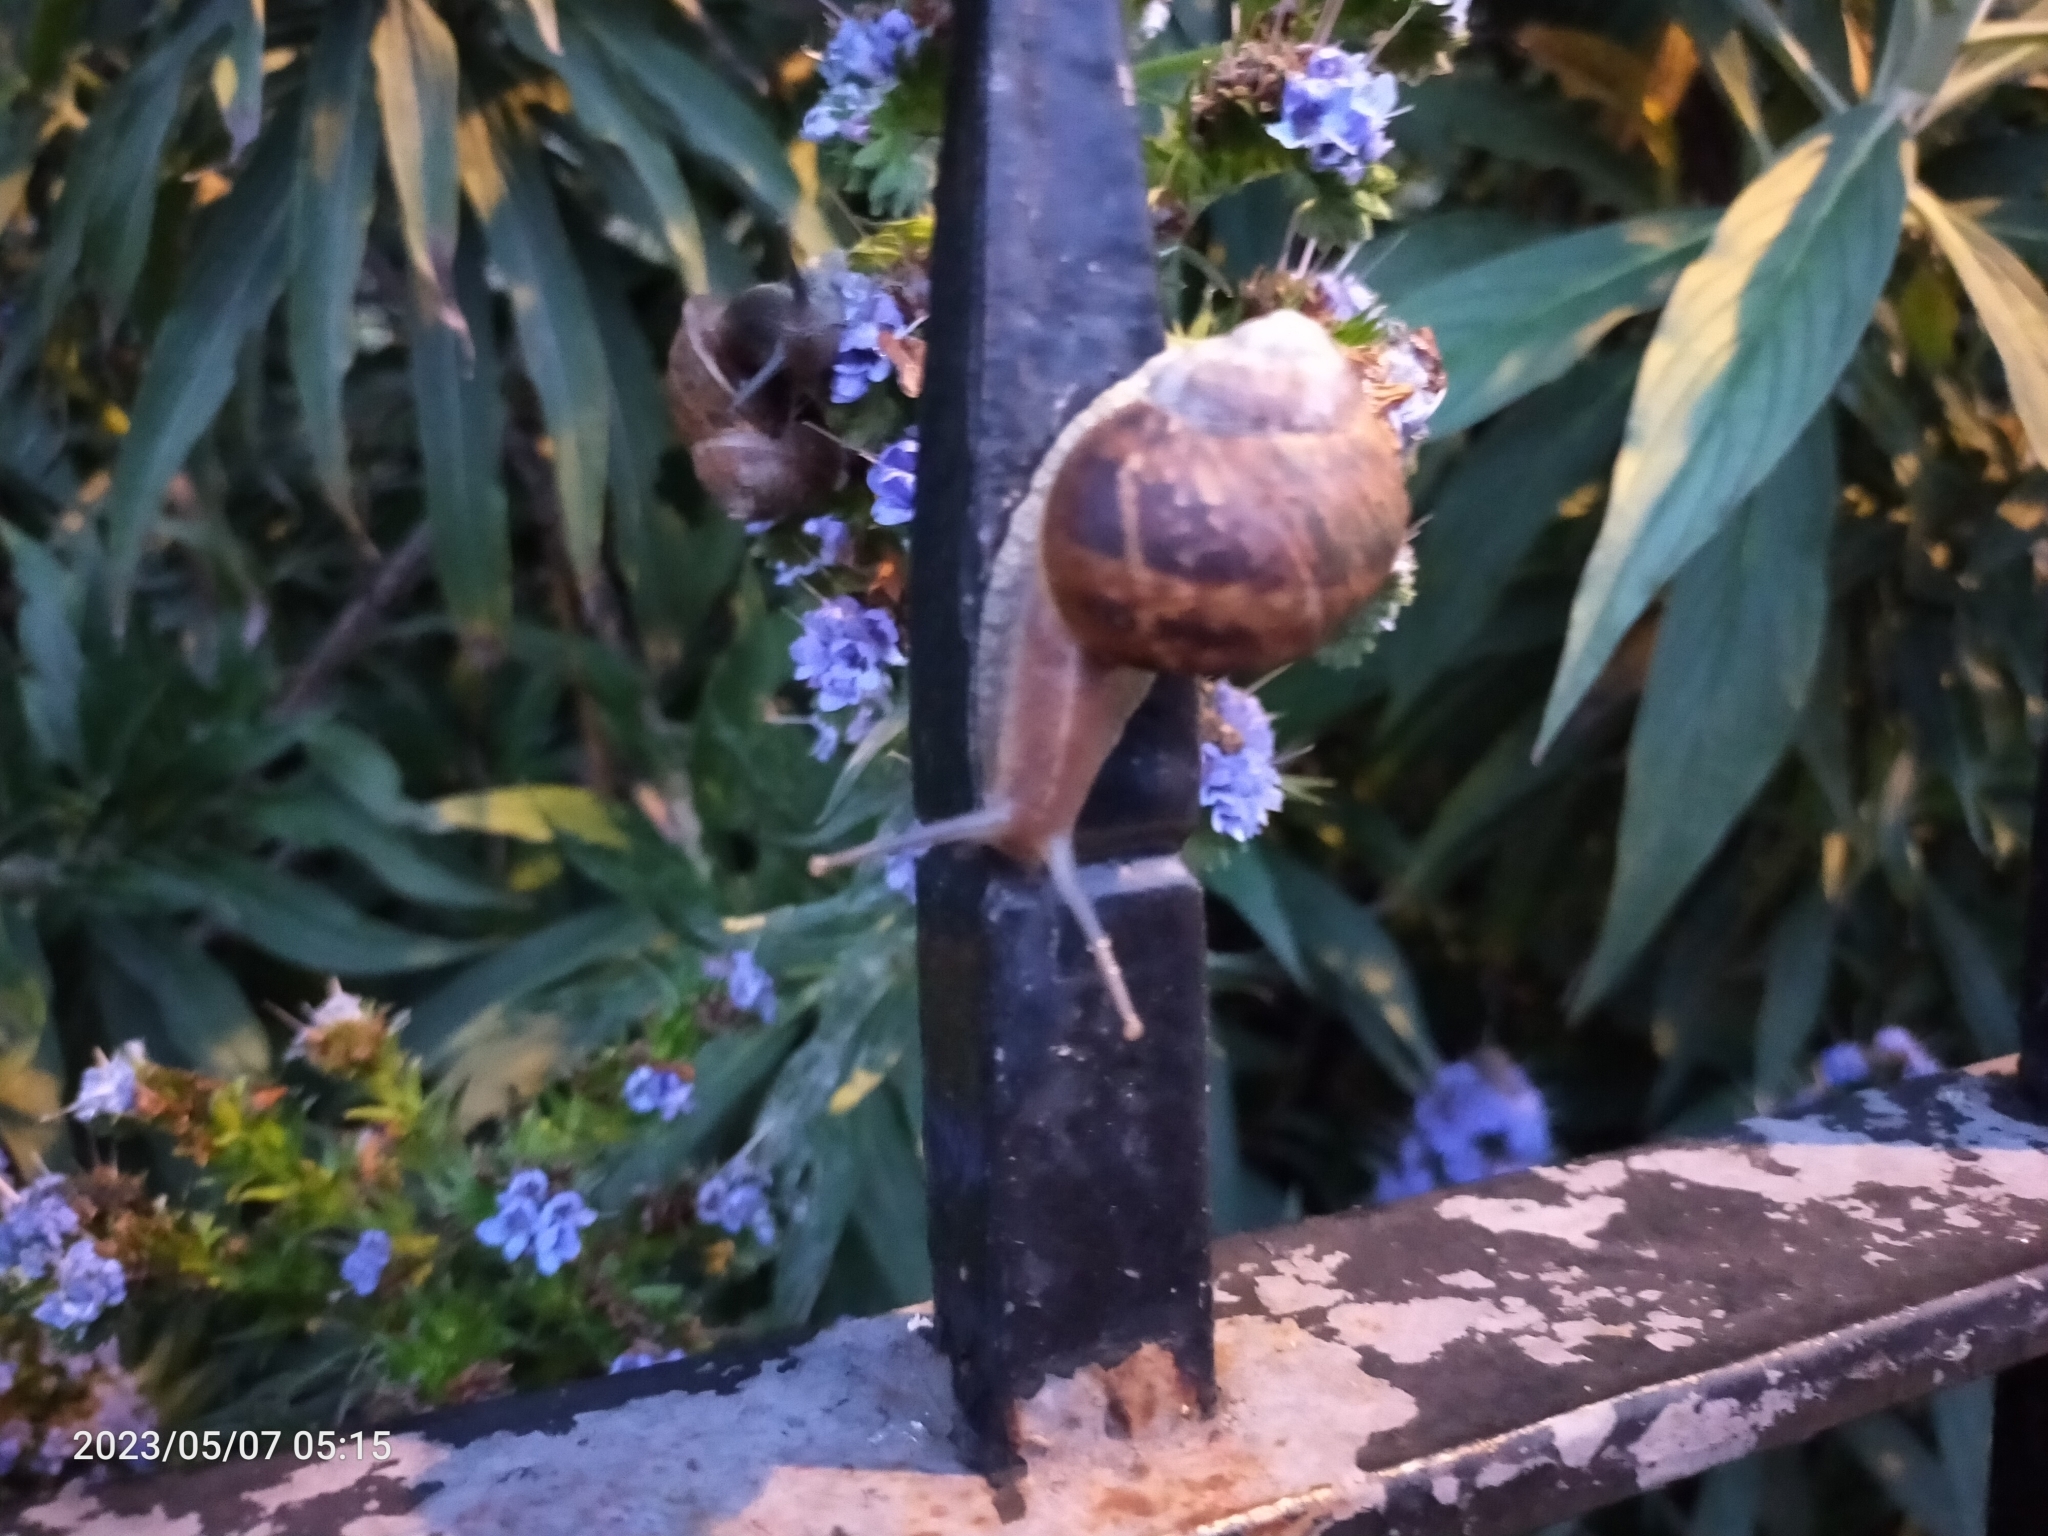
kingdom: Animalia
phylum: Mollusca
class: Gastropoda
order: Stylommatophora
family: Helicidae
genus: Cornu
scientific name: Cornu aspersum
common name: Brown garden snail
